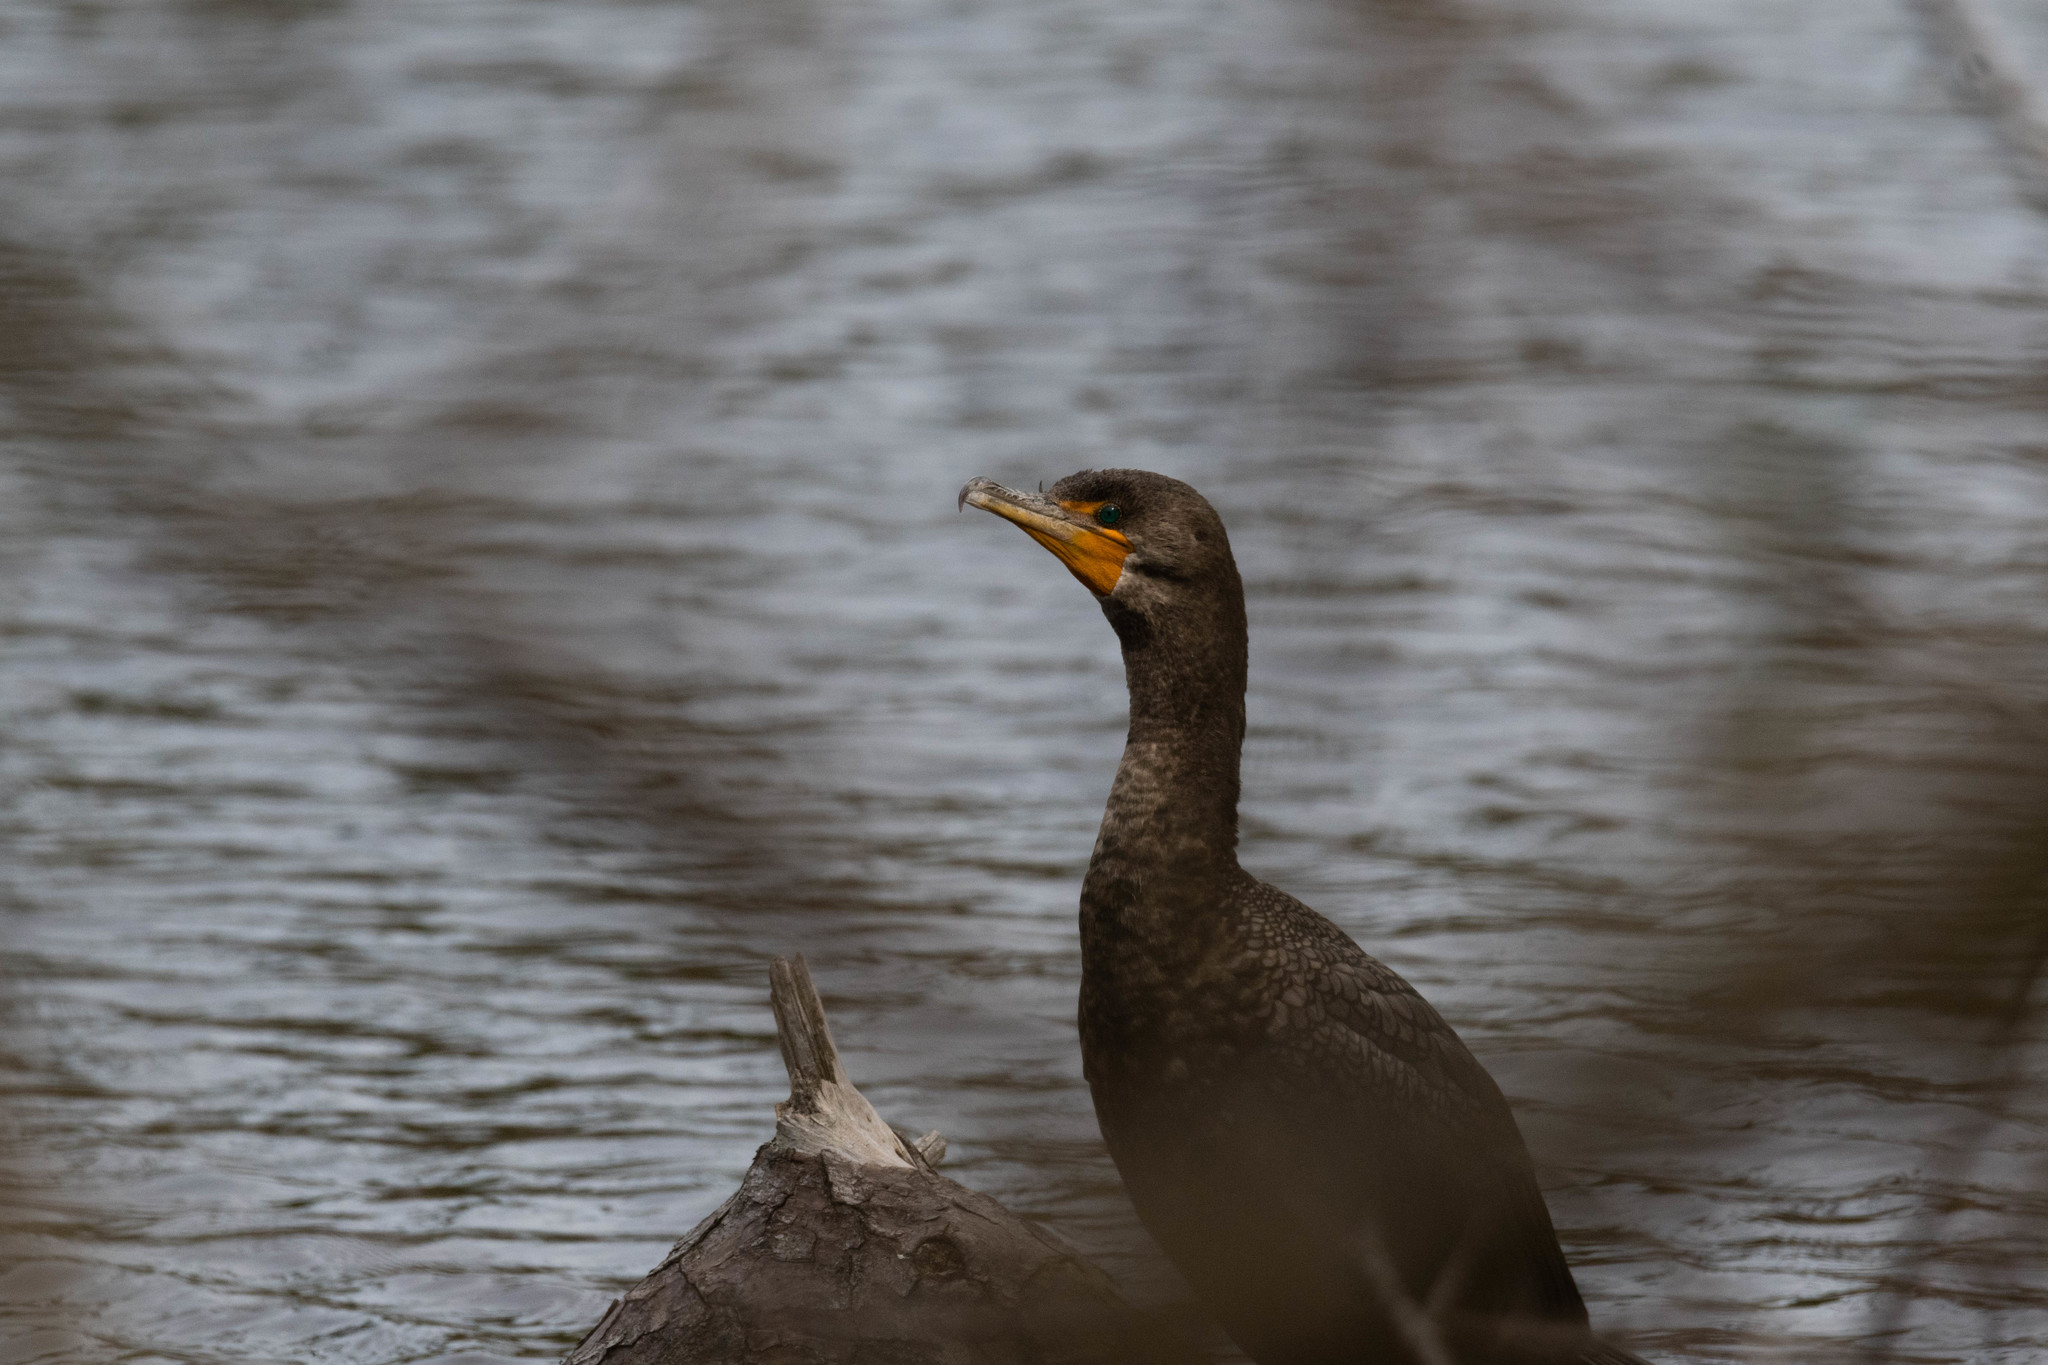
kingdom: Animalia
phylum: Chordata
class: Aves
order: Suliformes
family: Phalacrocoracidae
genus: Phalacrocorax
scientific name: Phalacrocorax auritus
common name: Double-crested cormorant
